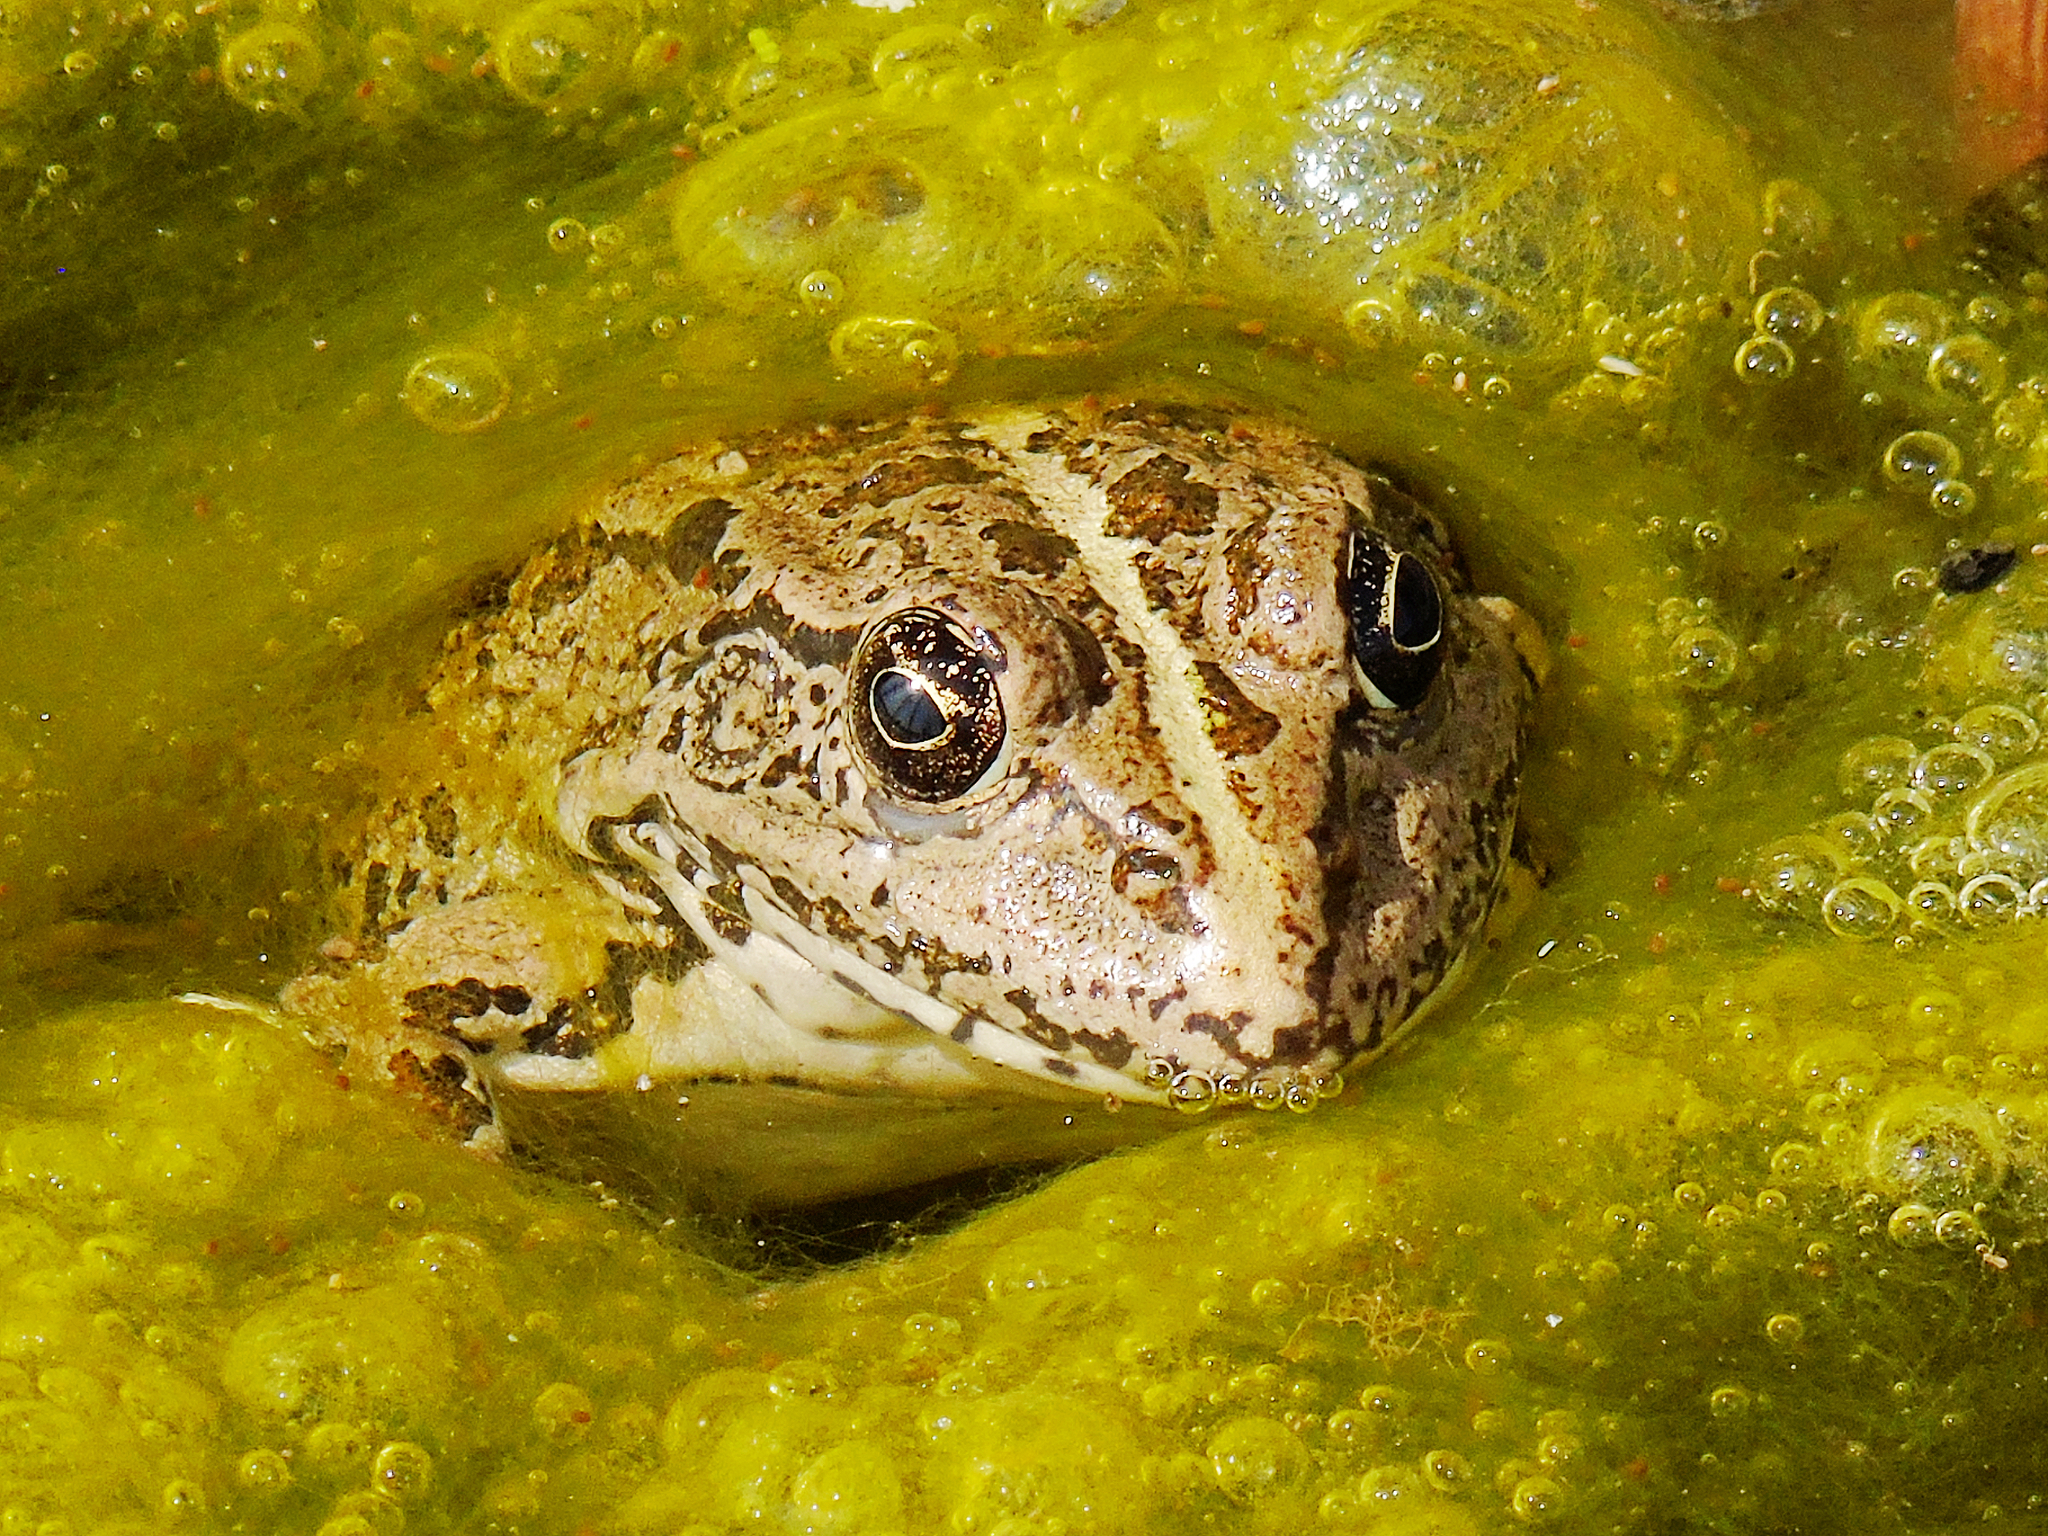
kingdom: Animalia
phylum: Chordata
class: Amphibia
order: Anura
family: Ranidae
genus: Pelophylax
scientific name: Pelophylax ridibundus
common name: Marsh frog
